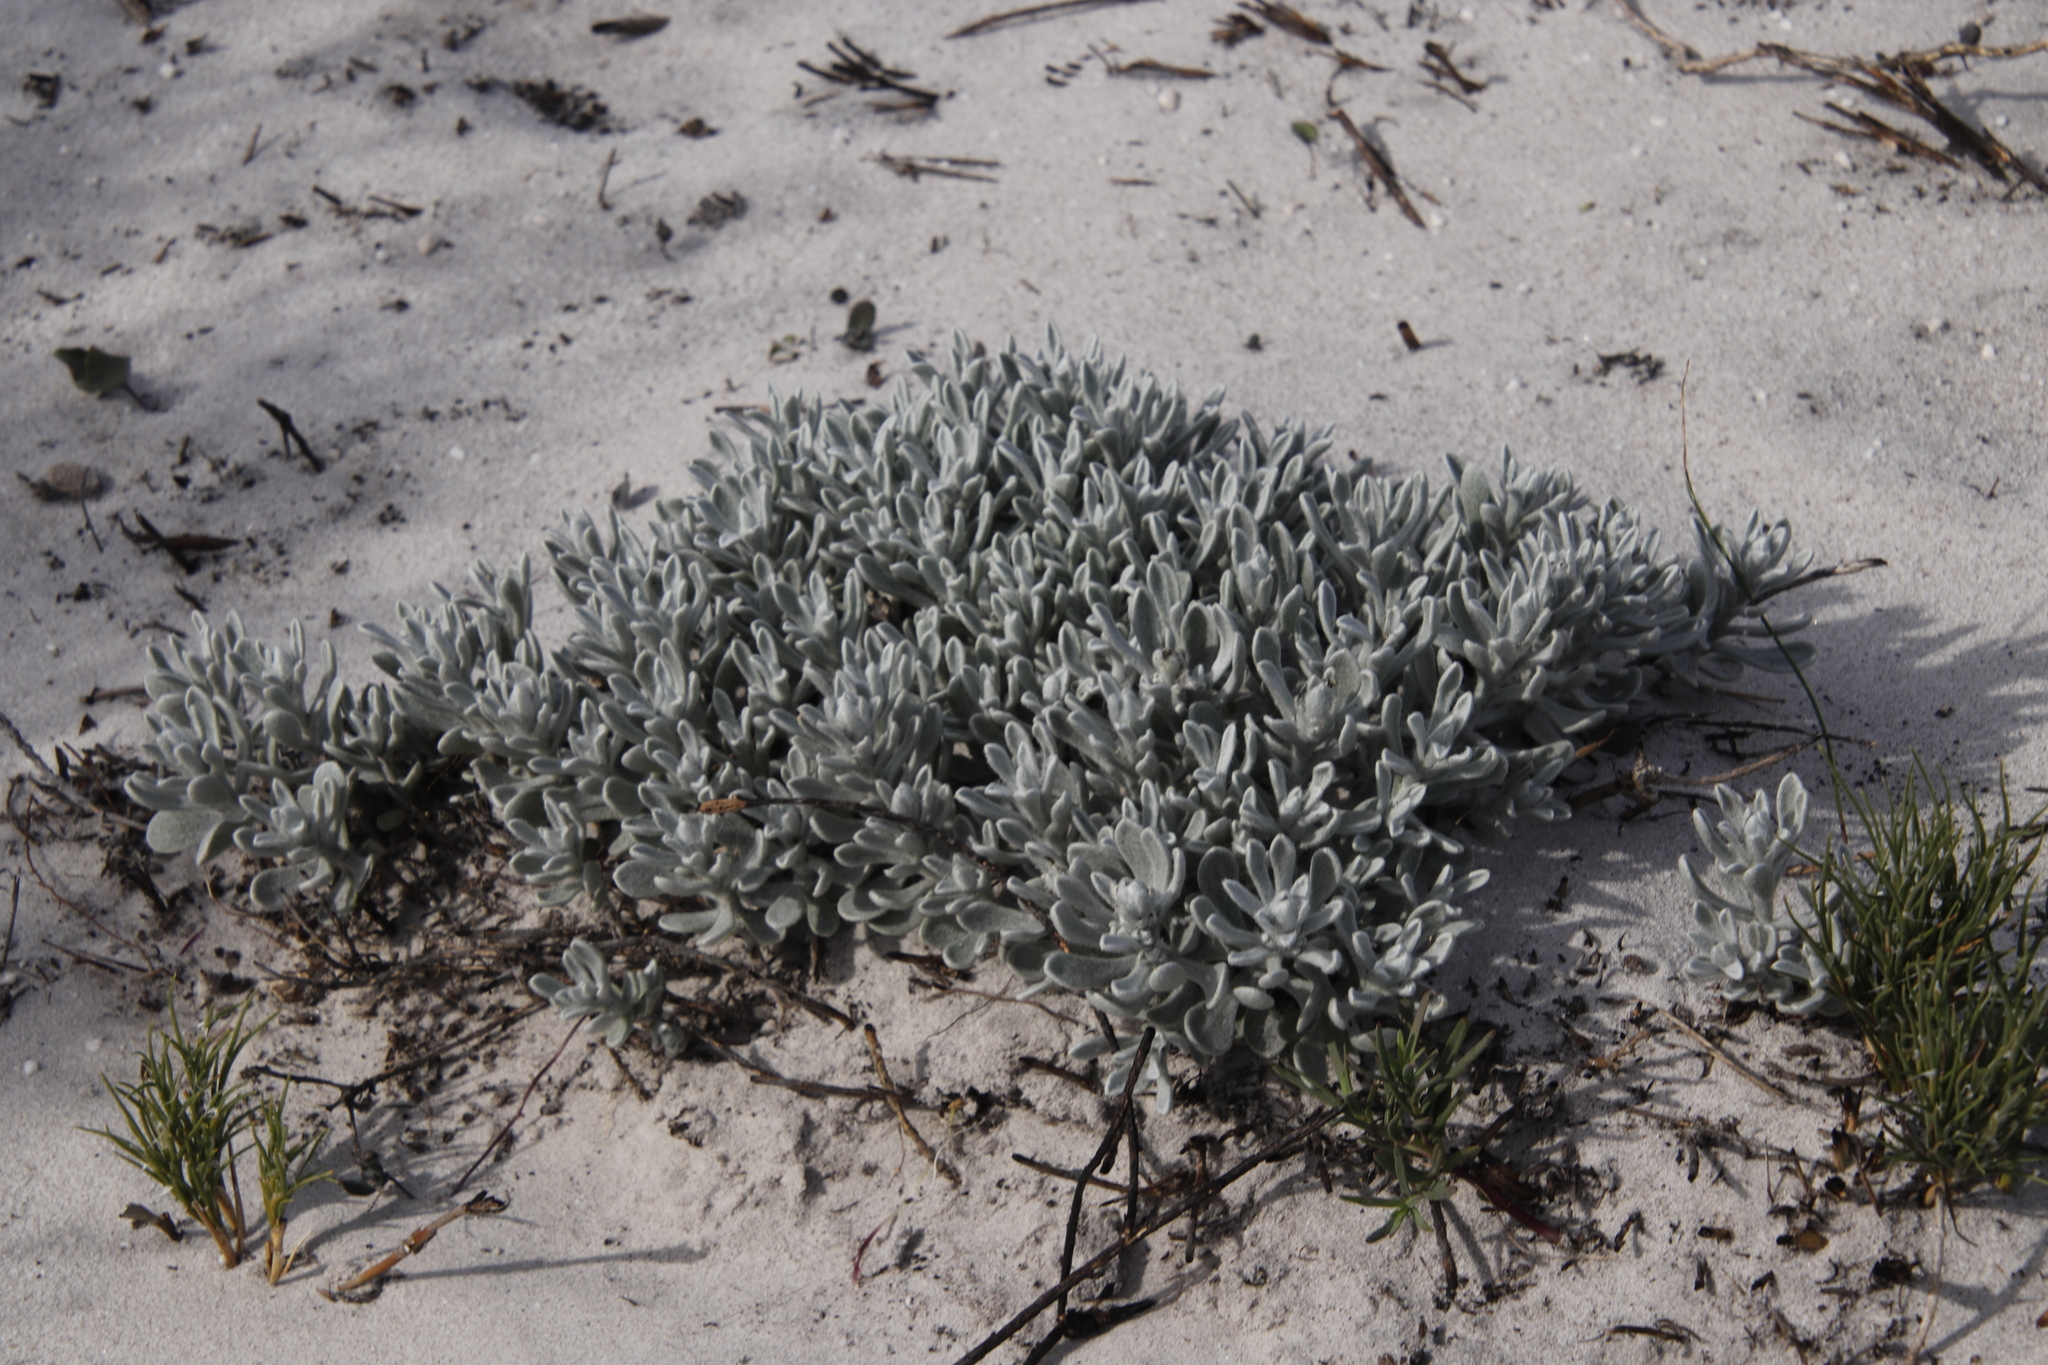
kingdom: Plantae
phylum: Tracheophyta
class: Magnoliopsida
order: Asterales
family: Asteraceae
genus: Petalacte
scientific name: Petalacte coronata
